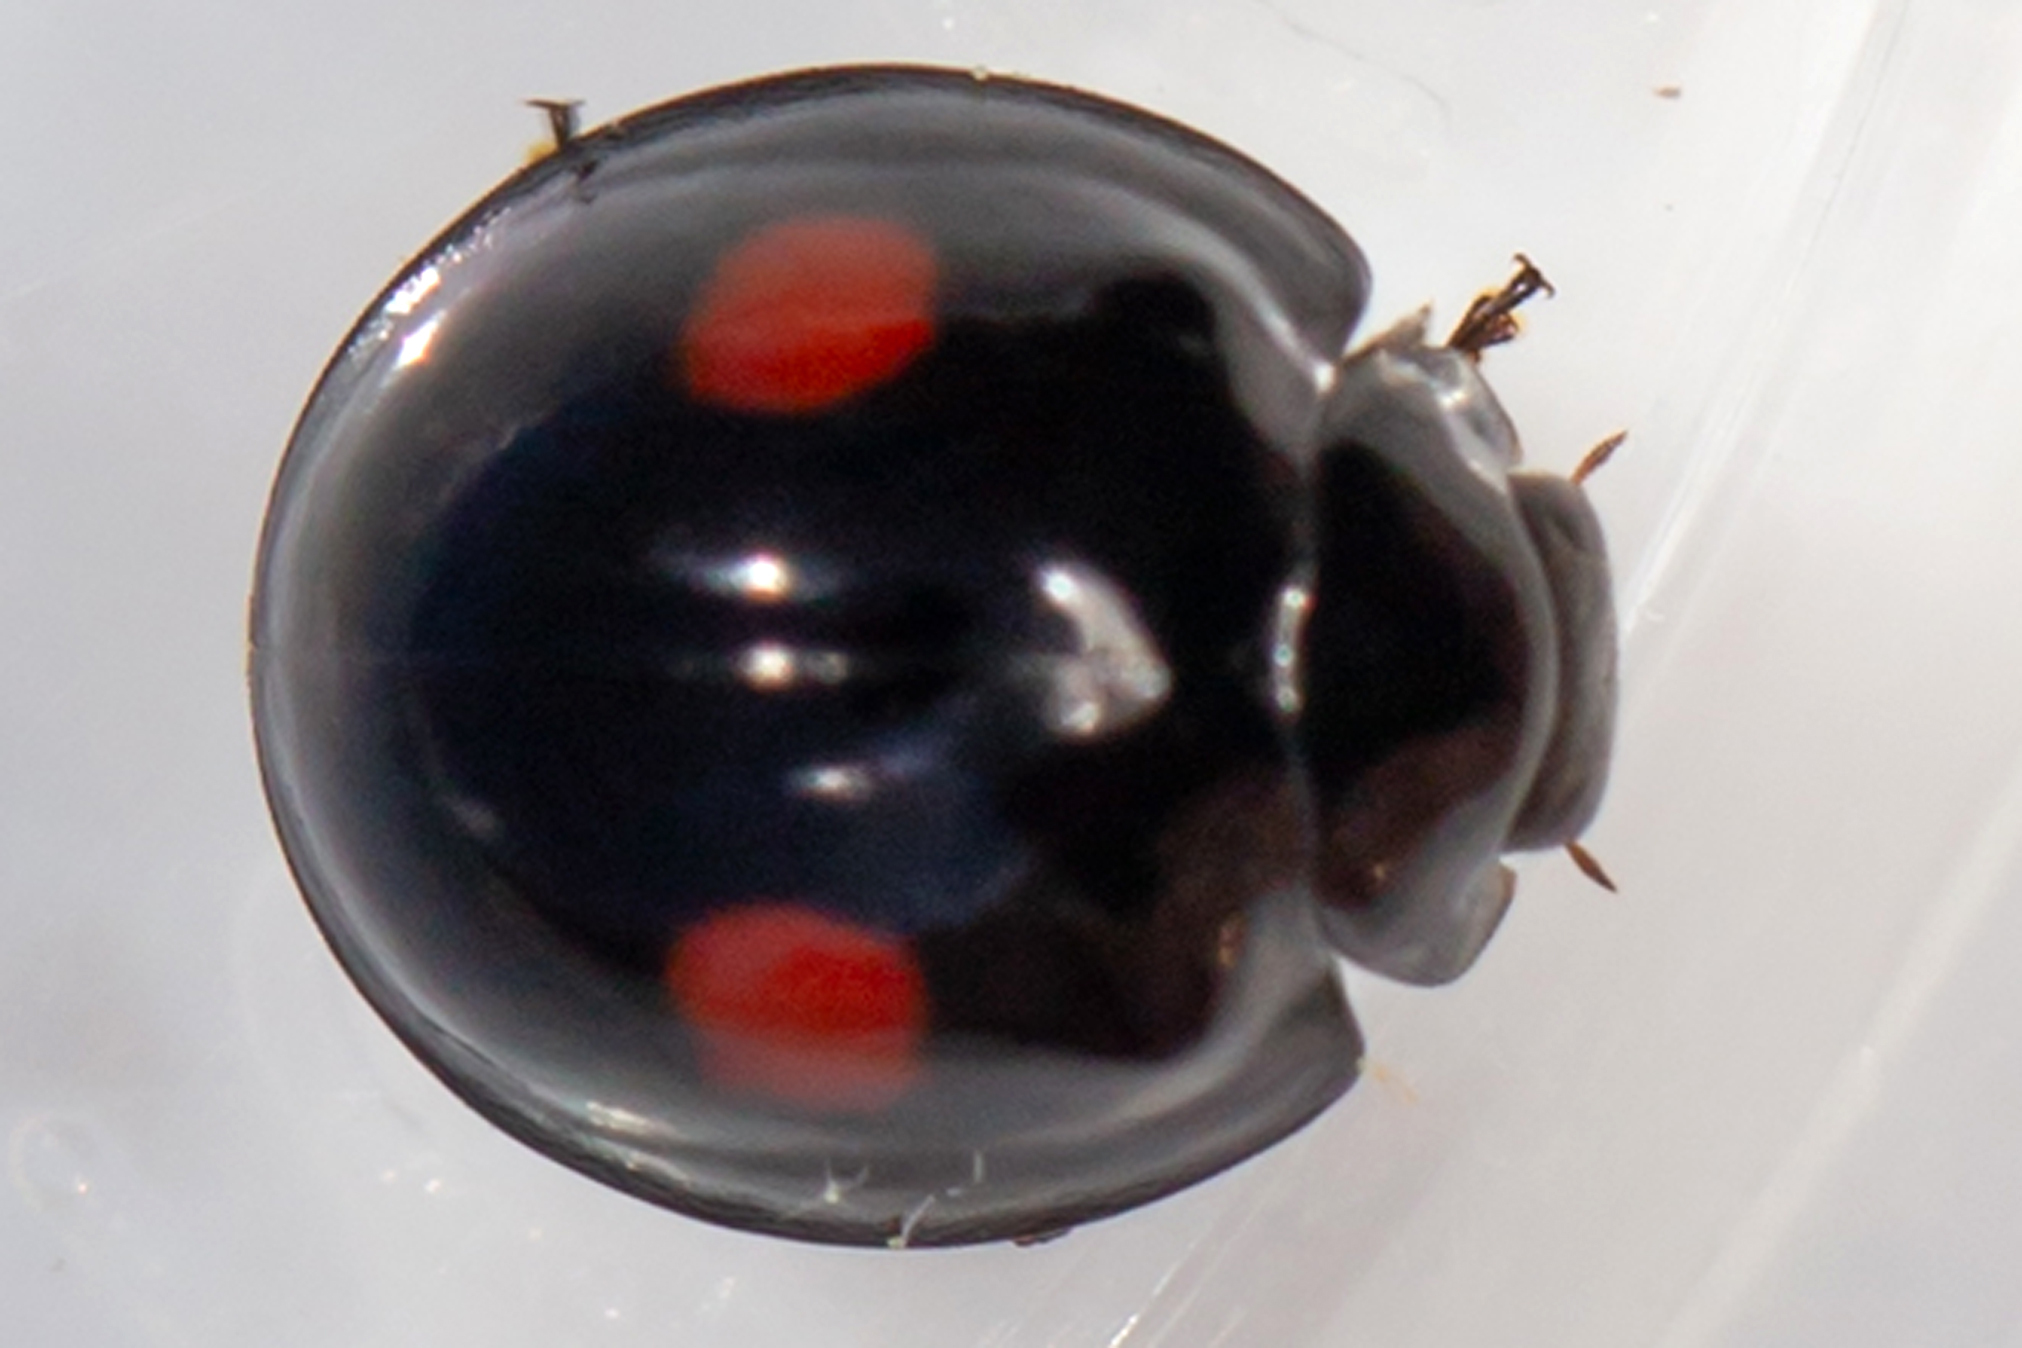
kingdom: Animalia
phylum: Arthropoda
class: Insecta
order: Coleoptera
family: Coccinellidae
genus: Chilocorus
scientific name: Chilocorus tumidus
